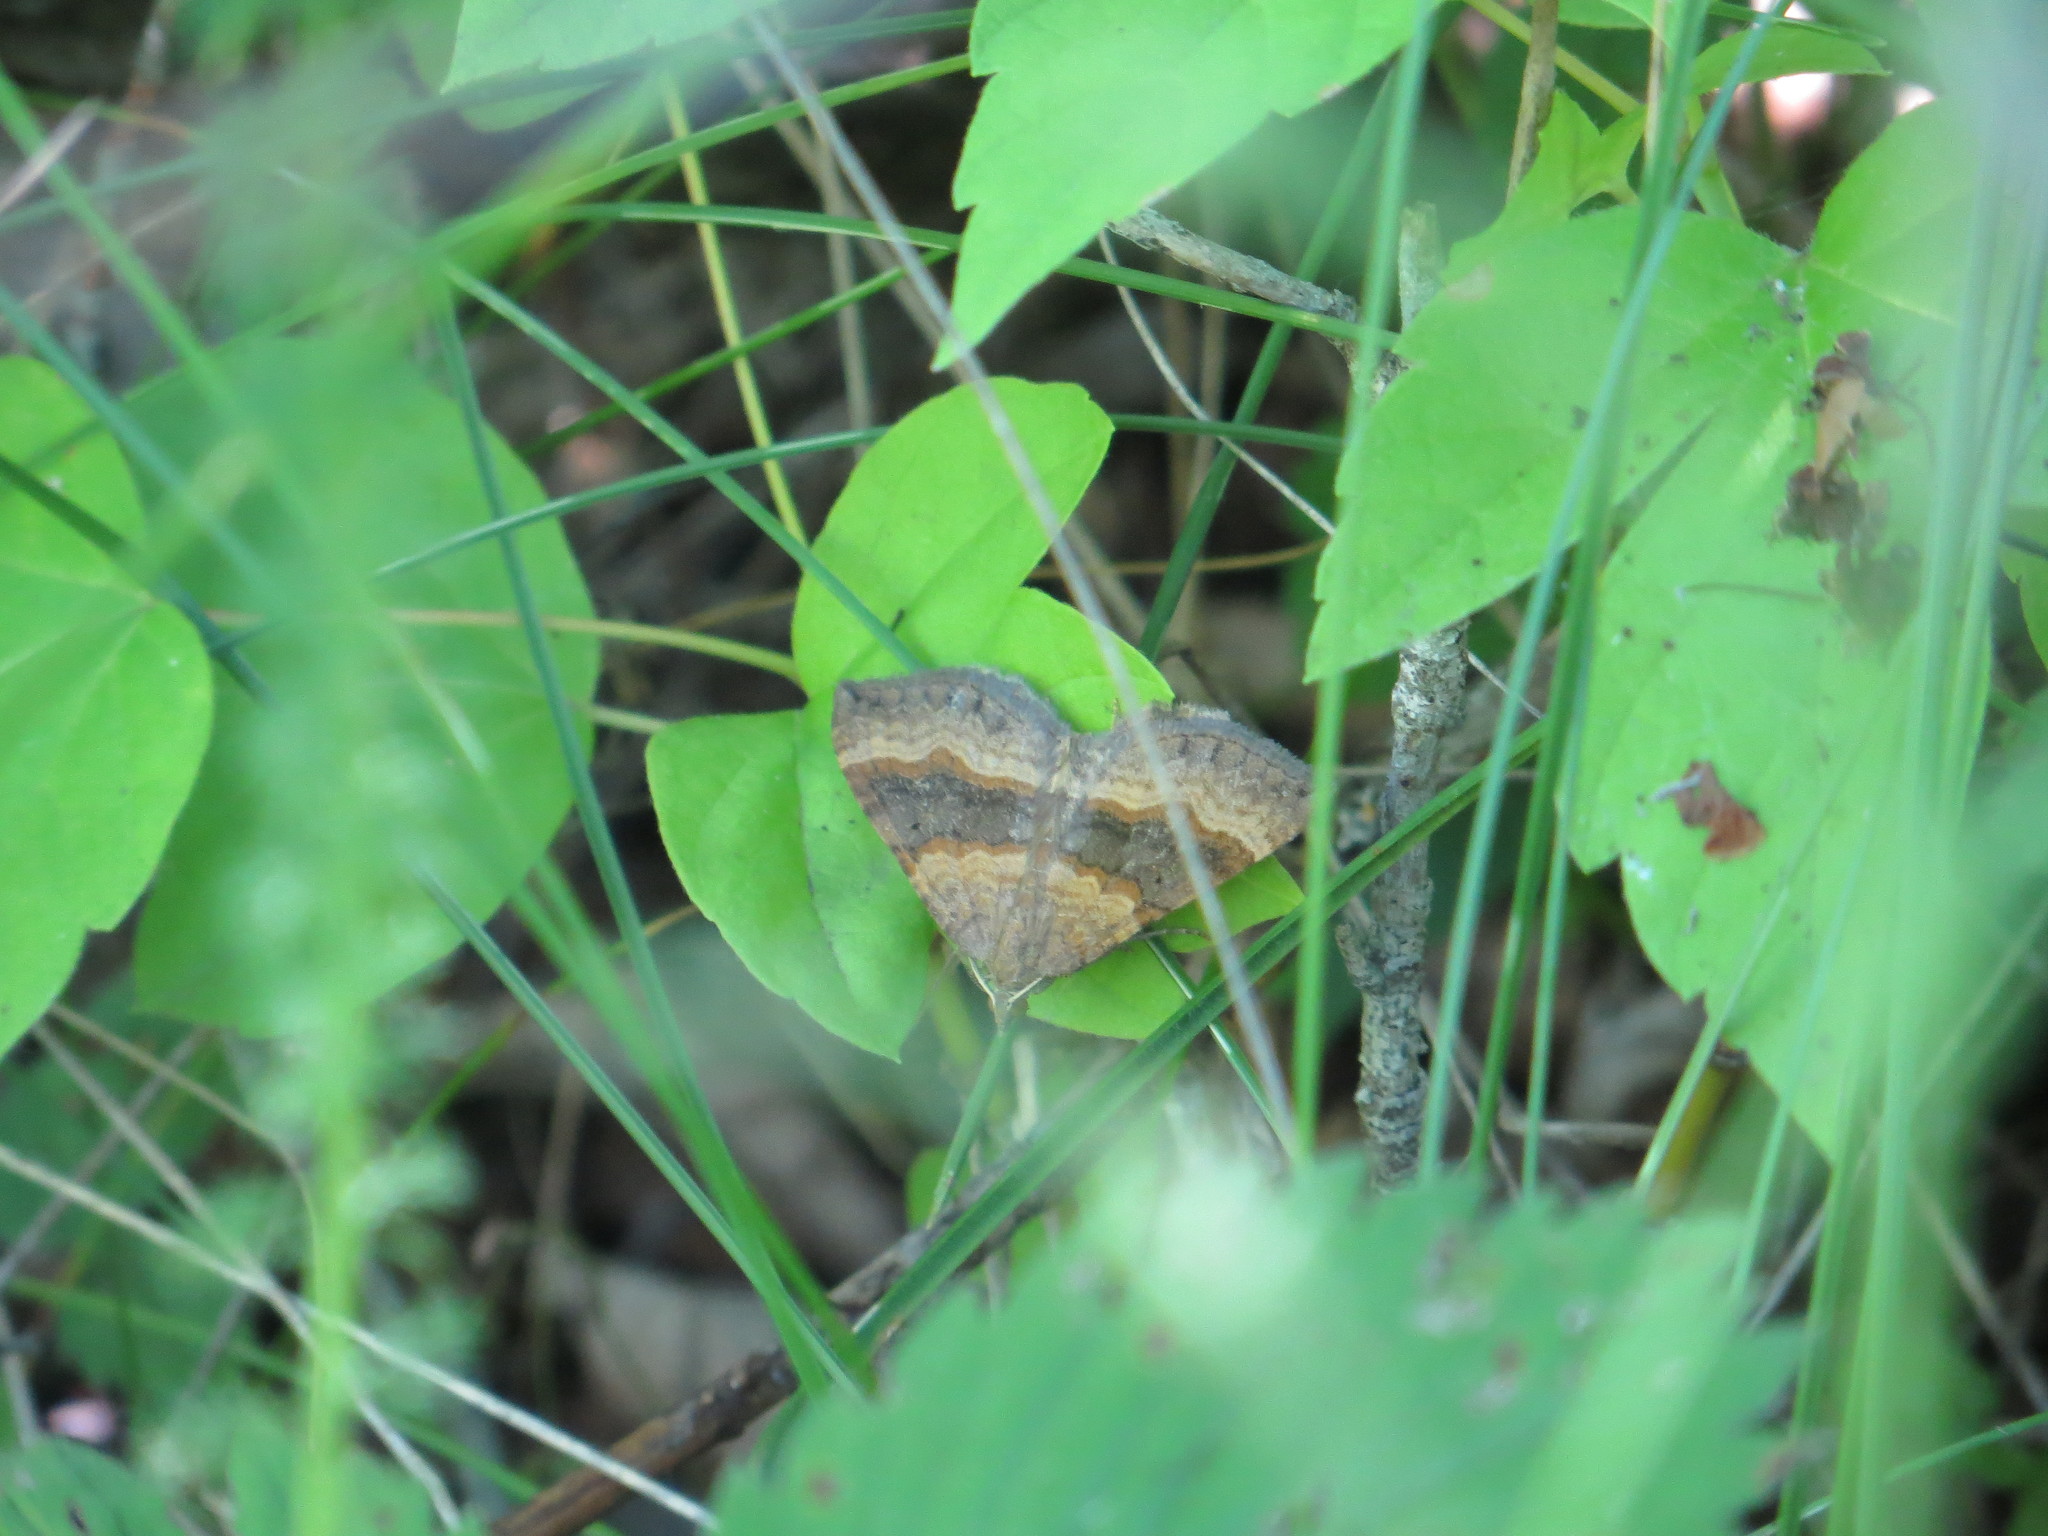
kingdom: Animalia
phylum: Arthropoda
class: Insecta
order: Lepidoptera
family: Geometridae
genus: Scotopteryx
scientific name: Scotopteryx chenopodiata
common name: Shaded broad-bar
